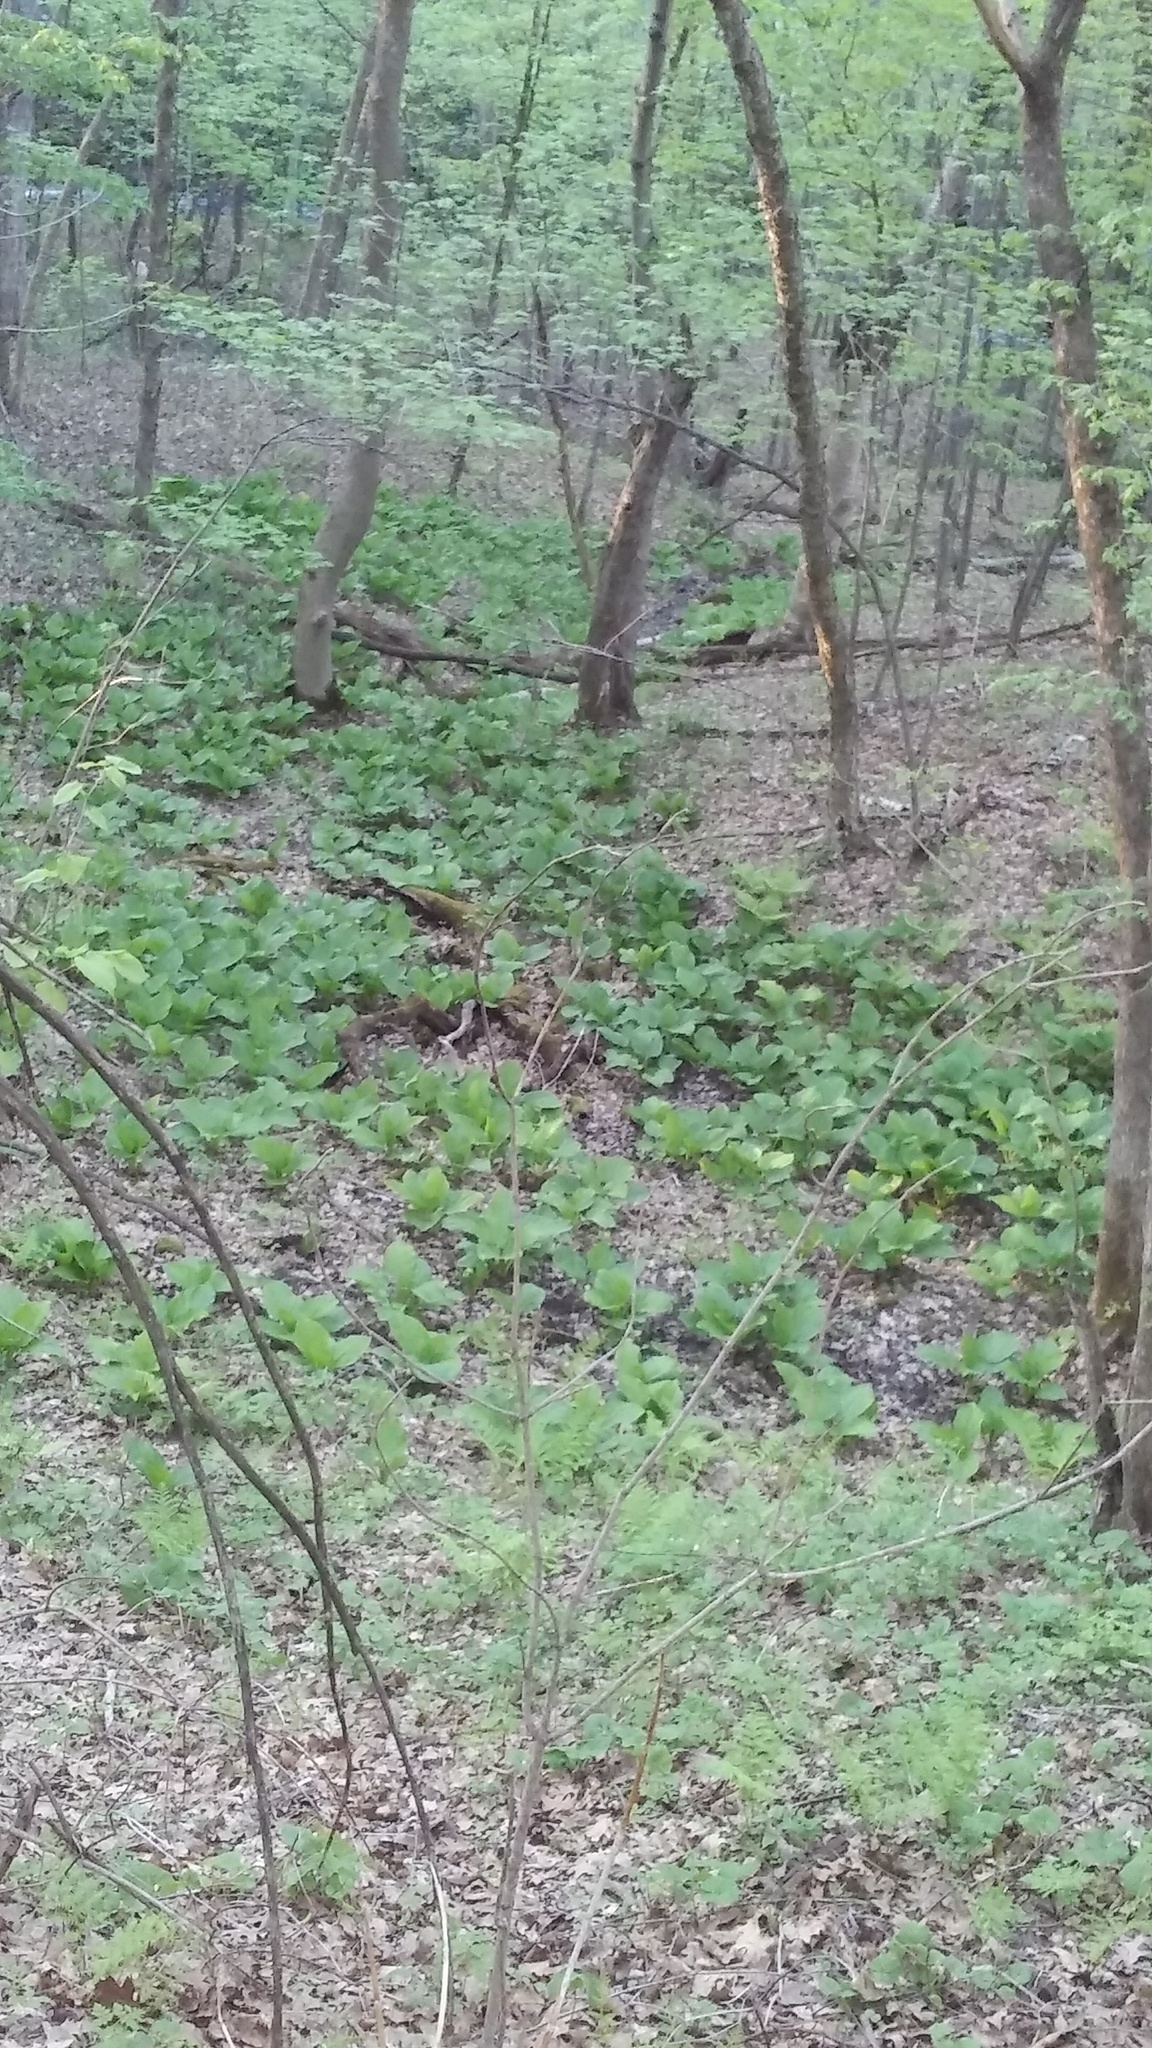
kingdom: Plantae
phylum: Tracheophyta
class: Liliopsida
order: Alismatales
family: Araceae
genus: Symplocarpus
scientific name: Symplocarpus foetidus
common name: Eastern skunk cabbage
